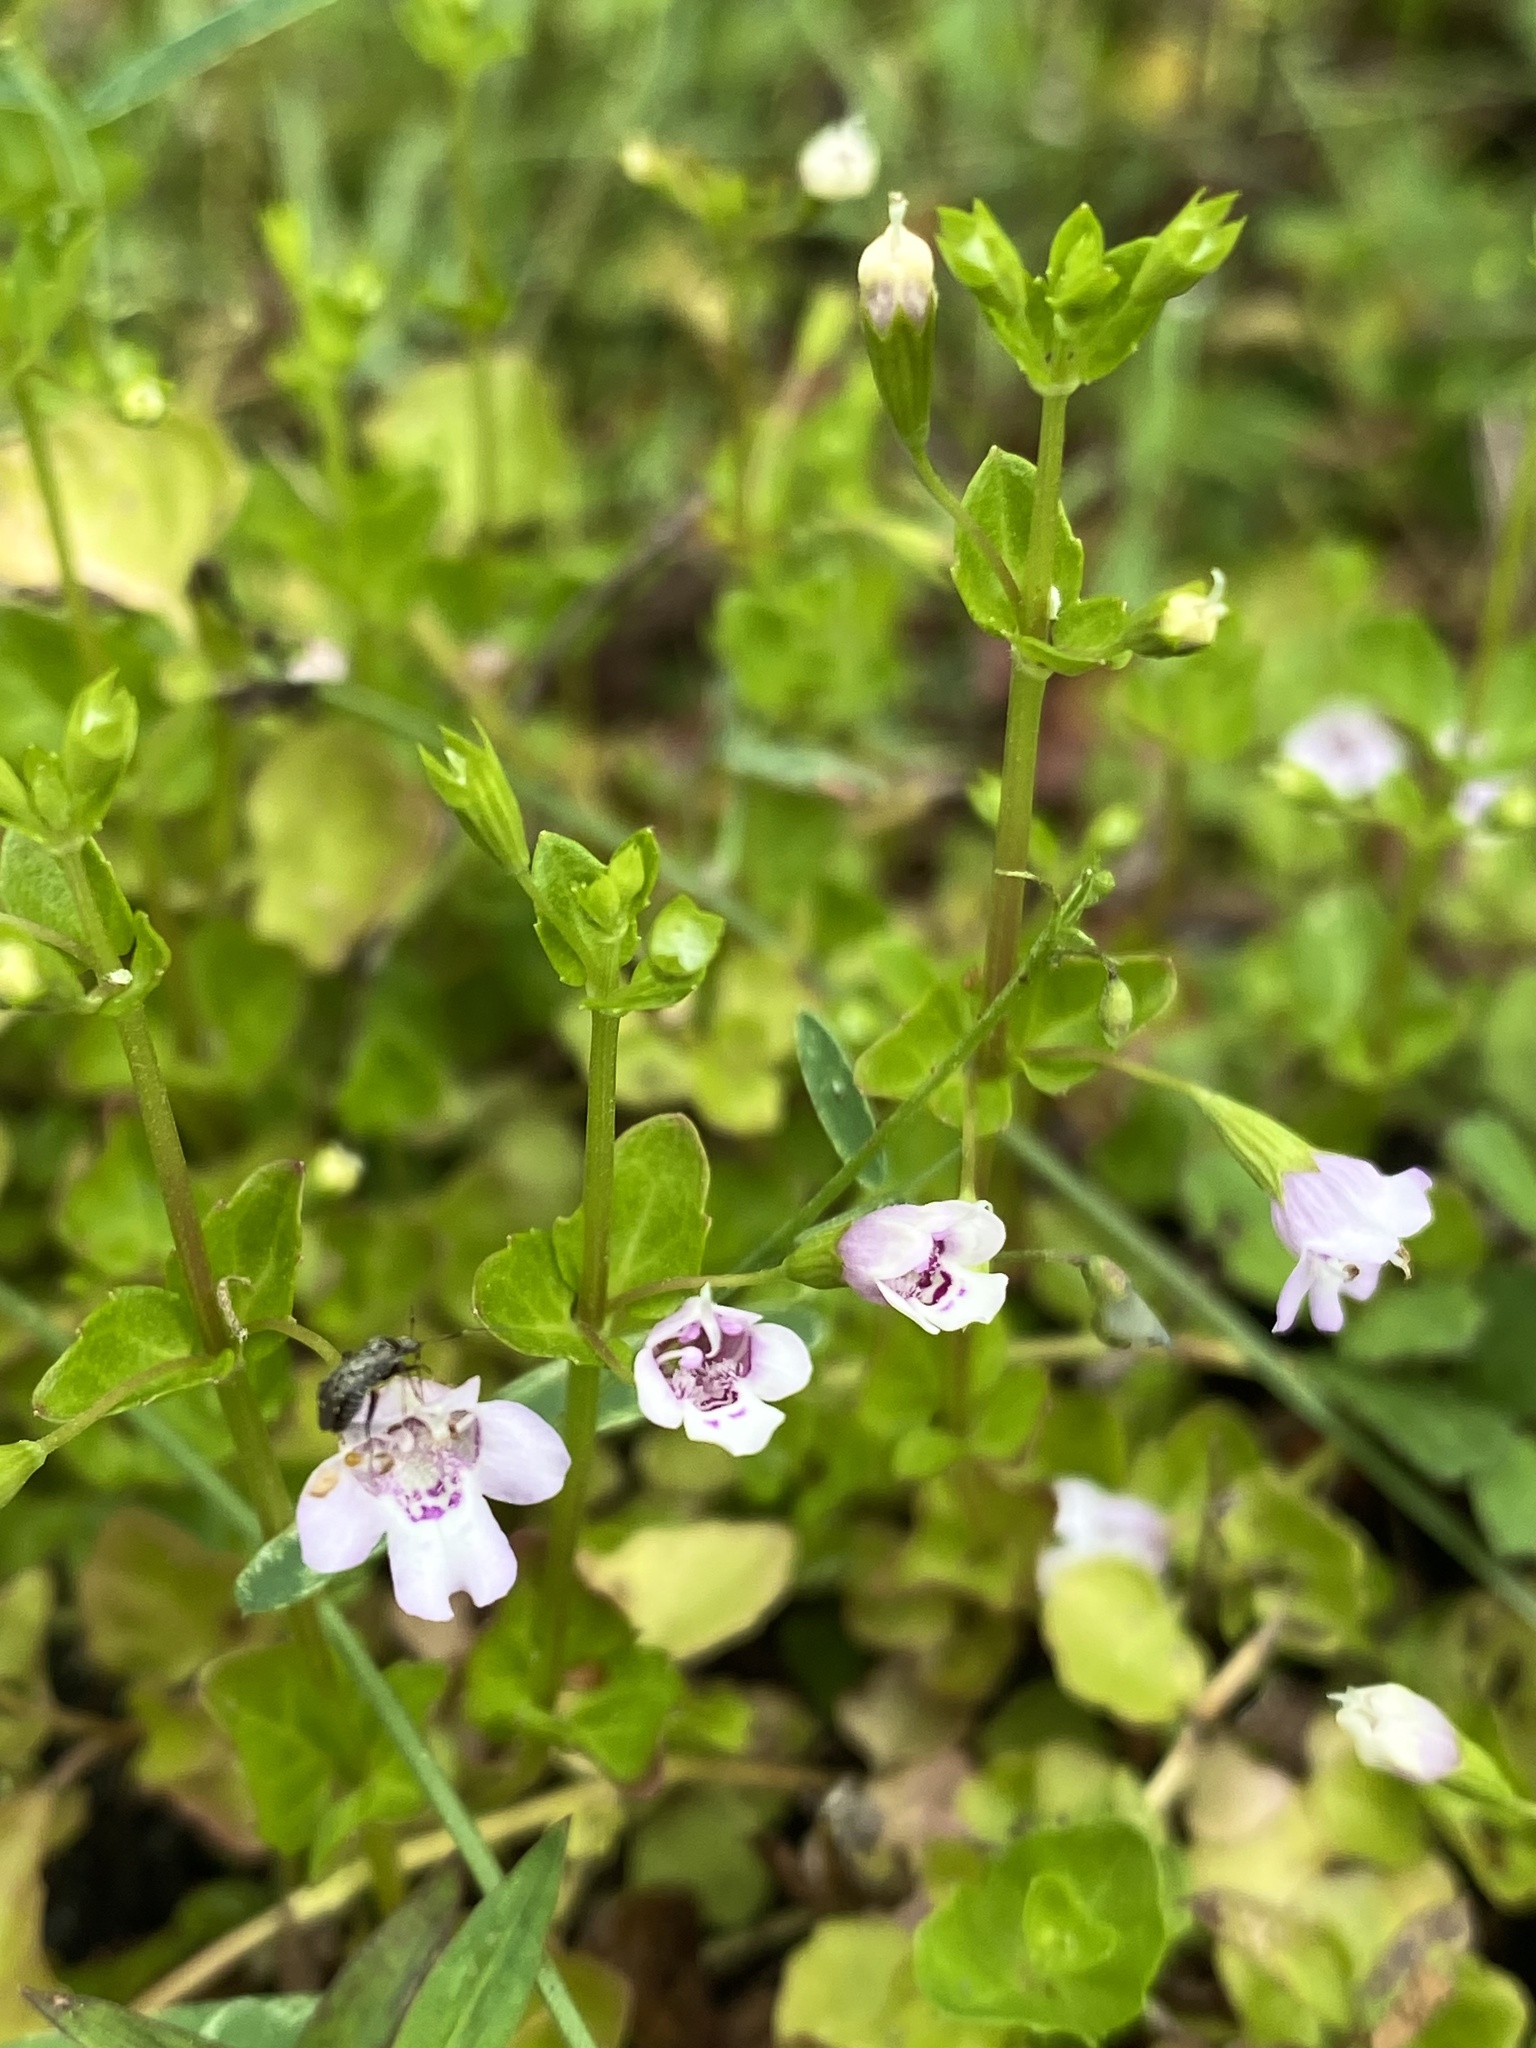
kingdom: Plantae
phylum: Tracheophyta
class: Magnoliopsida
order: Lamiales
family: Lamiaceae
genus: Clinopodium
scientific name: Clinopodium brownei
